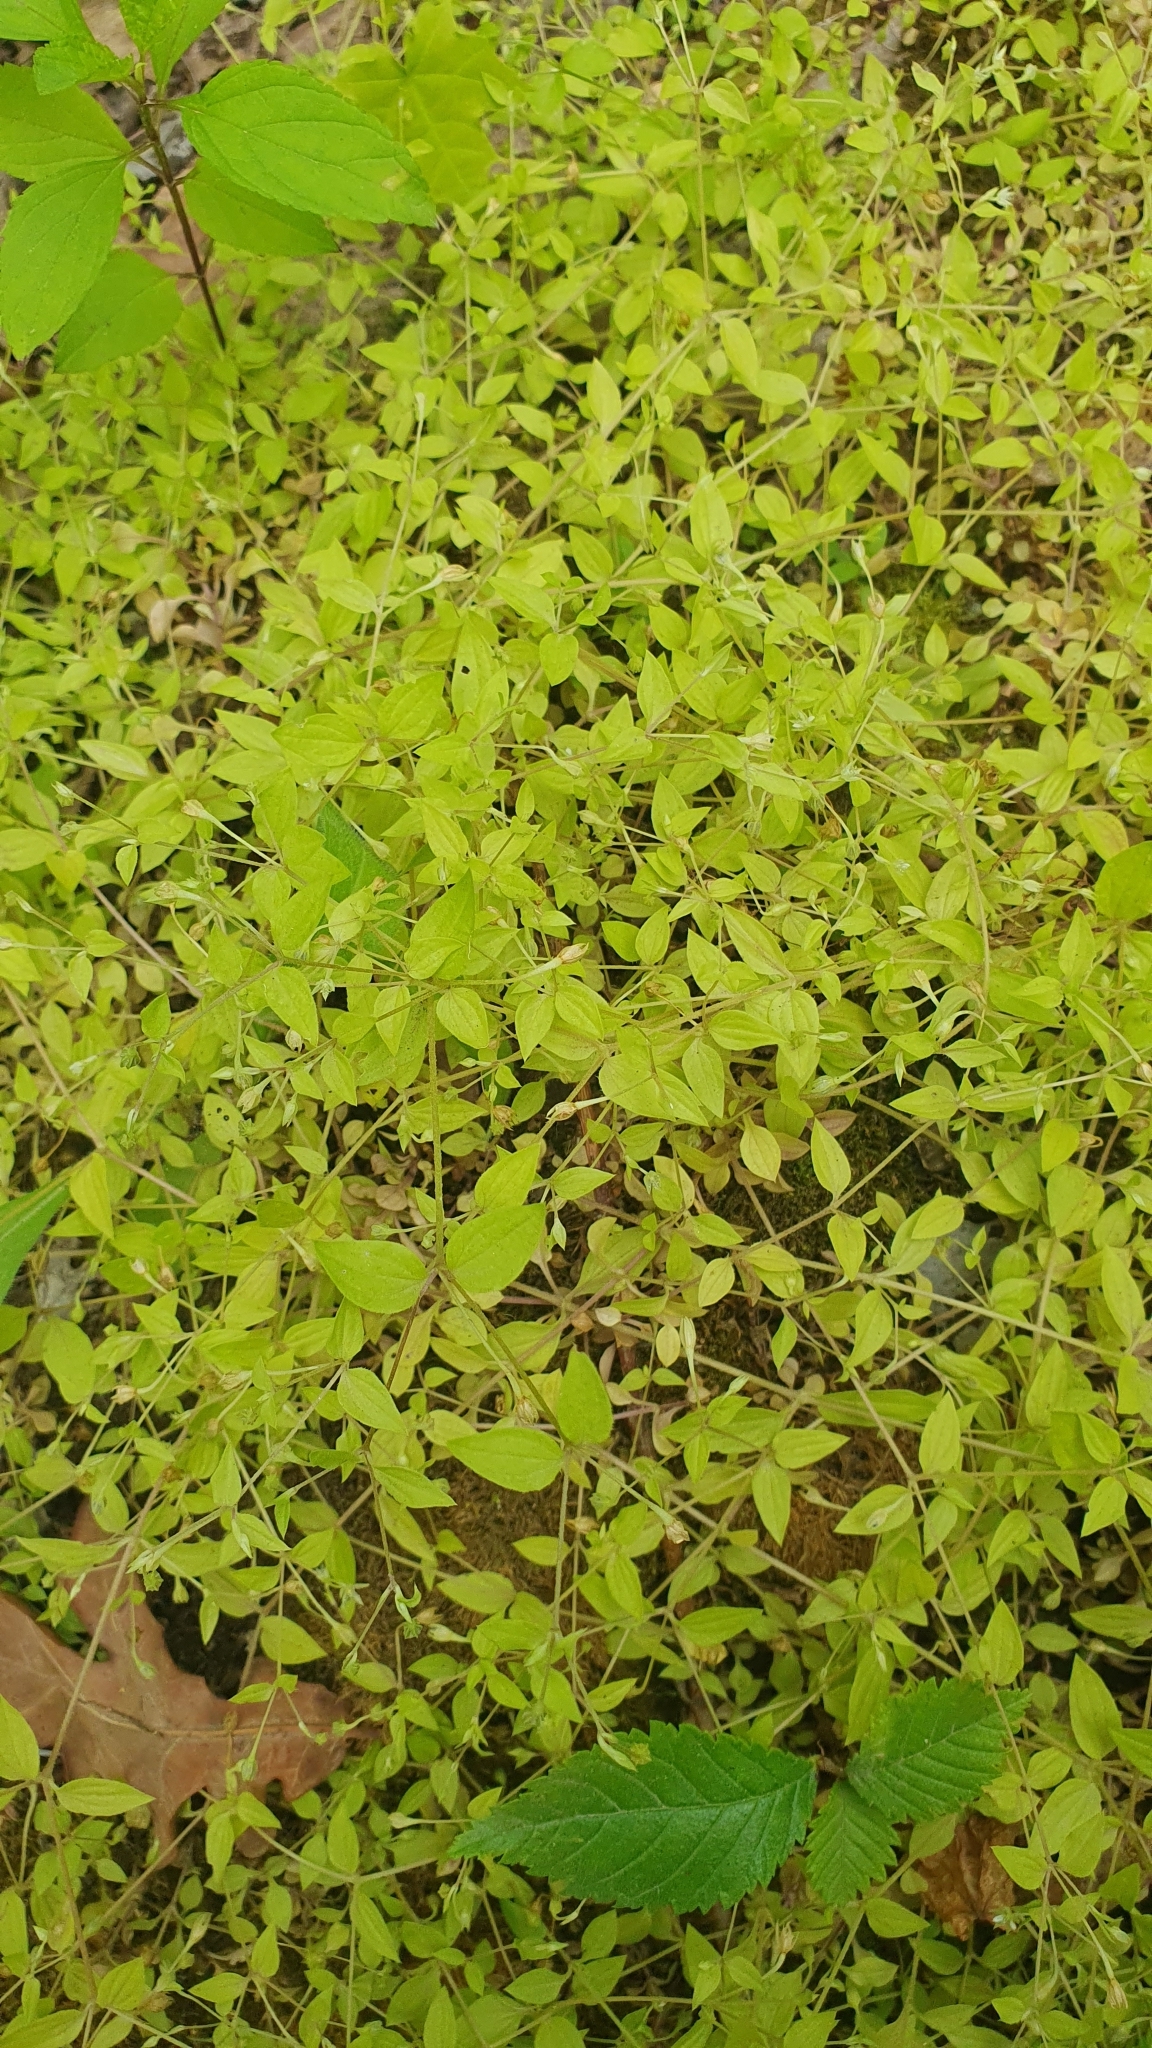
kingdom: Plantae
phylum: Tracheophyta
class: Magnoliopsida
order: Caryophyllales
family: Caryophyllaceae
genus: Moehringia
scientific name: Moehringia trinervia
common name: Three-nerved sandwort
